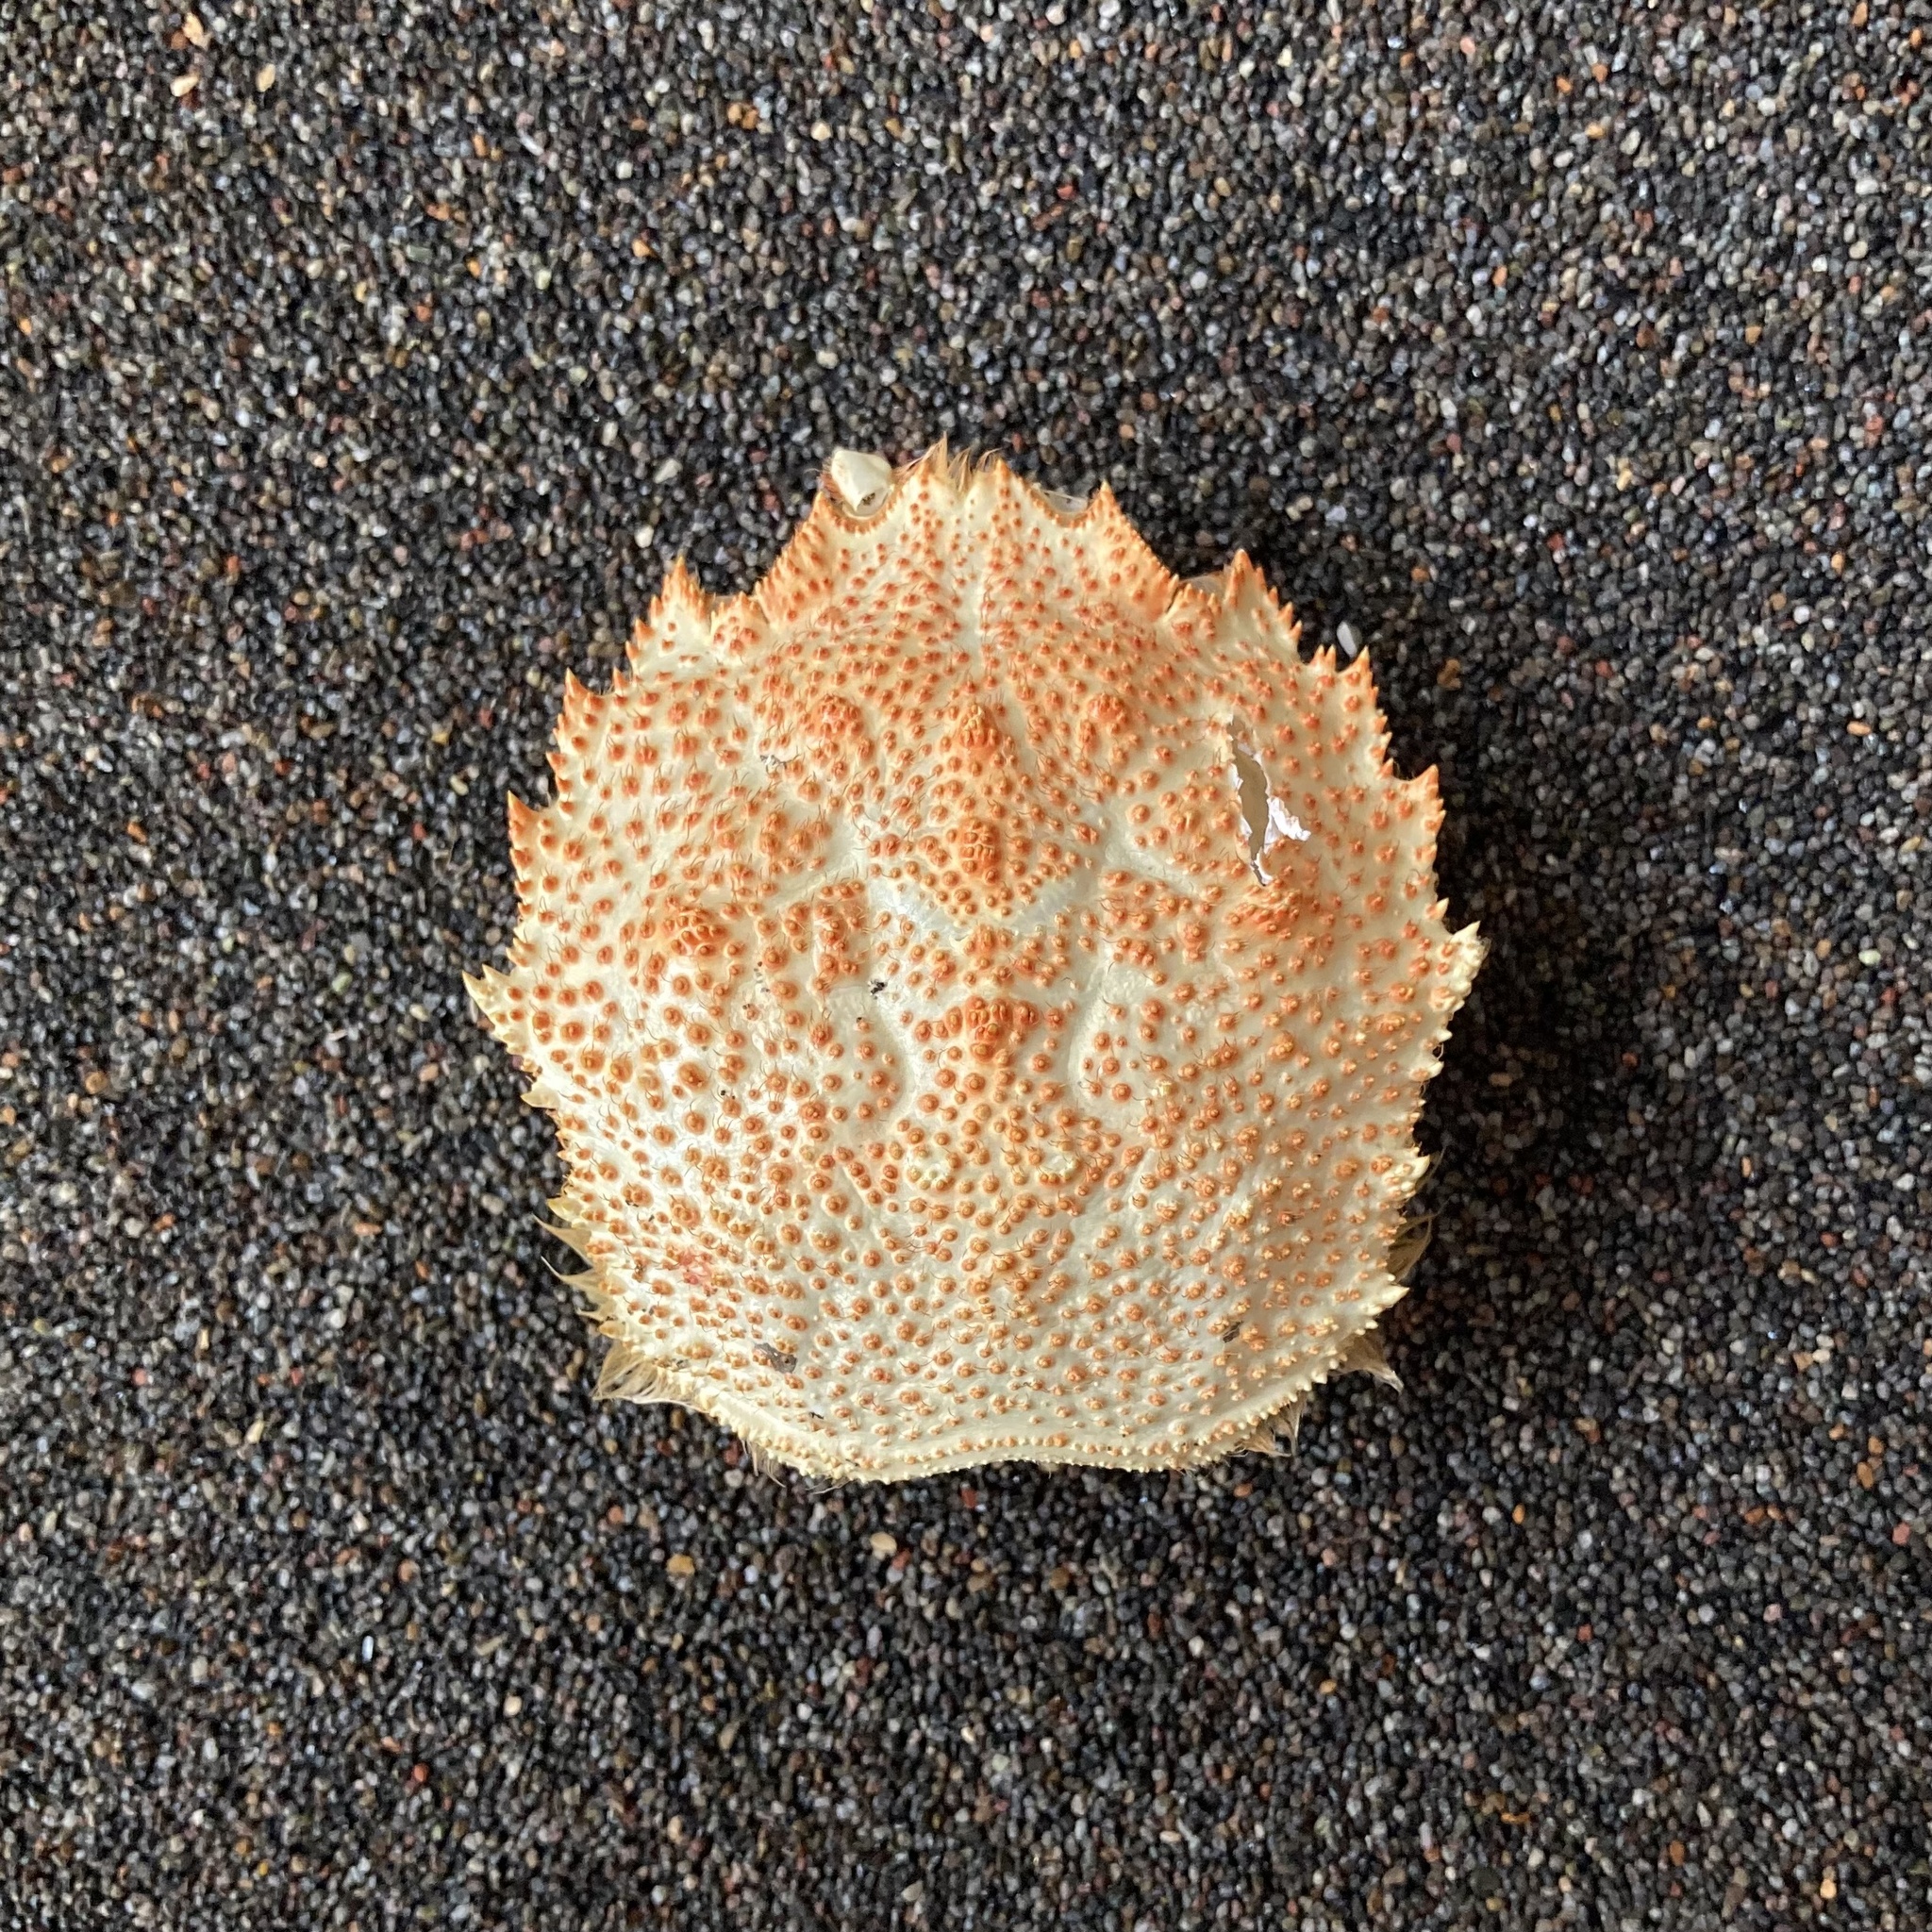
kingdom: Animalia
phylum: Arthropoda
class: Malacostraca
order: Decapoda
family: Cheiragonidae
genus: Erimacrus
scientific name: Erimacrus isenbeckii
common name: Korean horsehair crab
